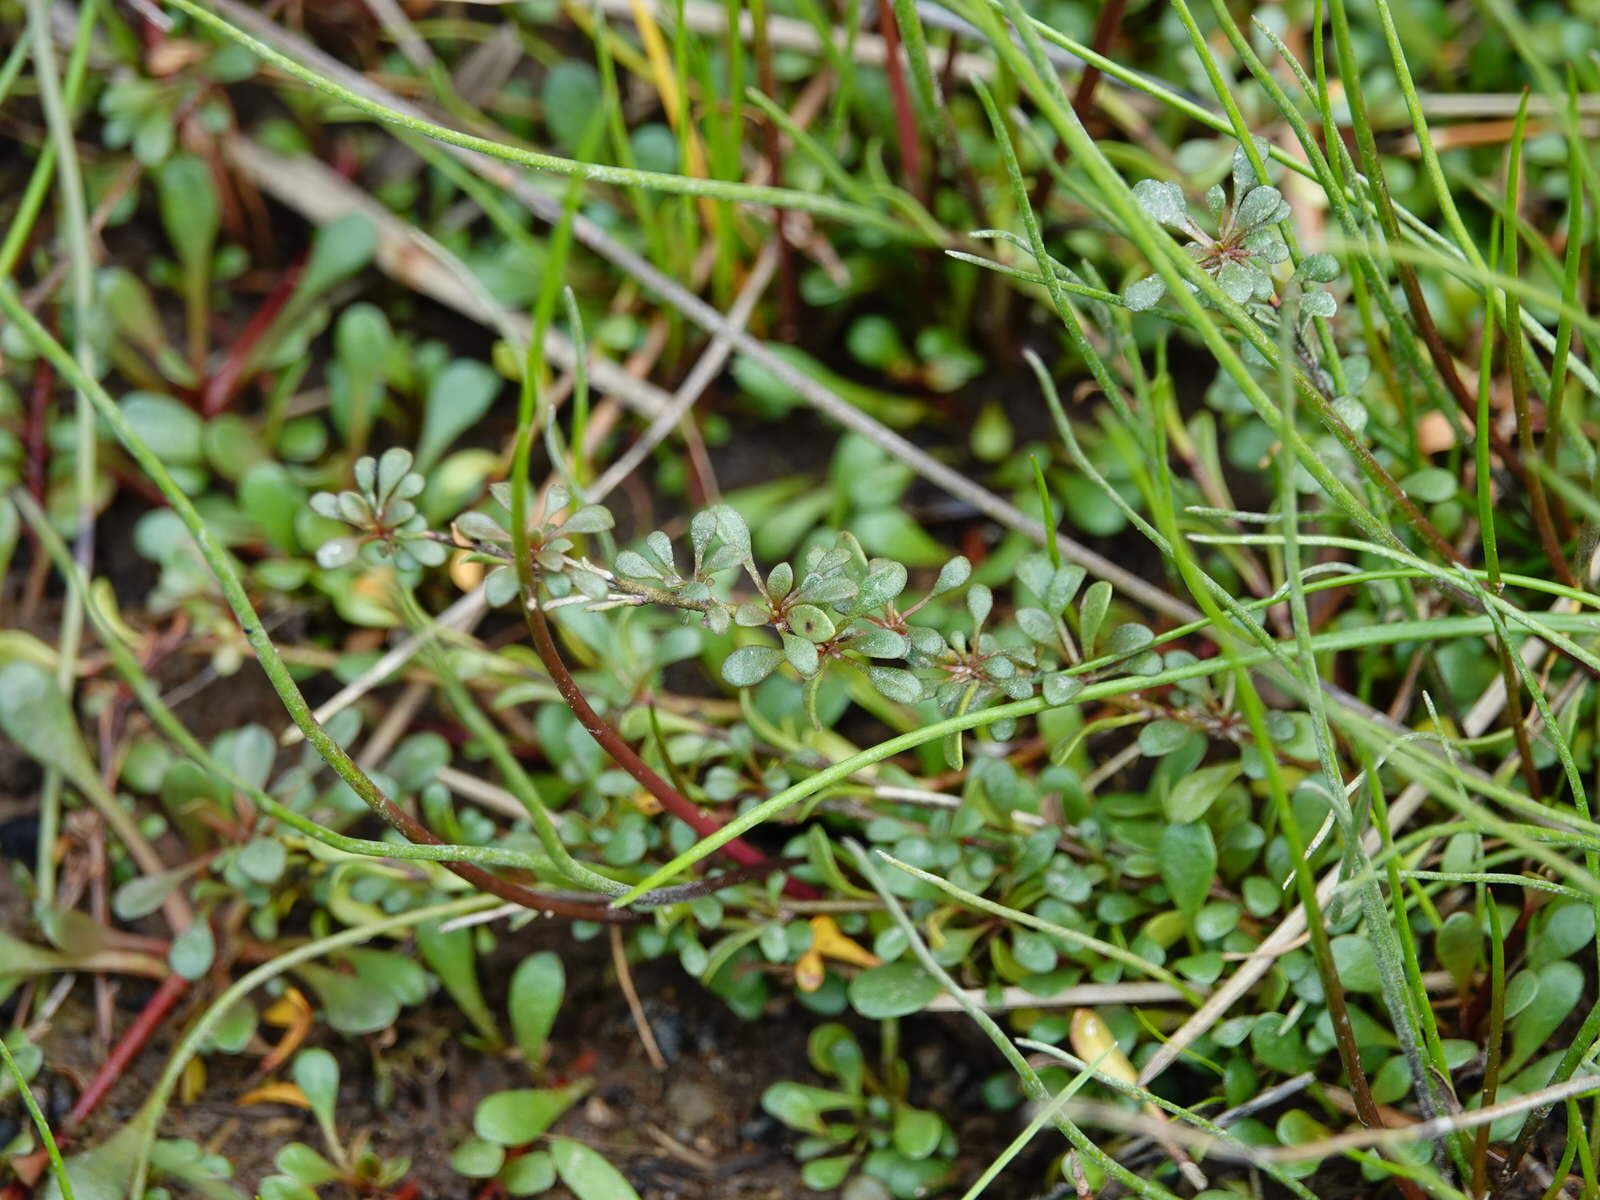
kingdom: Plantae
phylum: Tracheophyta
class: Magnoliopsida
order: Ericales
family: Primulaceae
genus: Samolus
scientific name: Samolus repens
